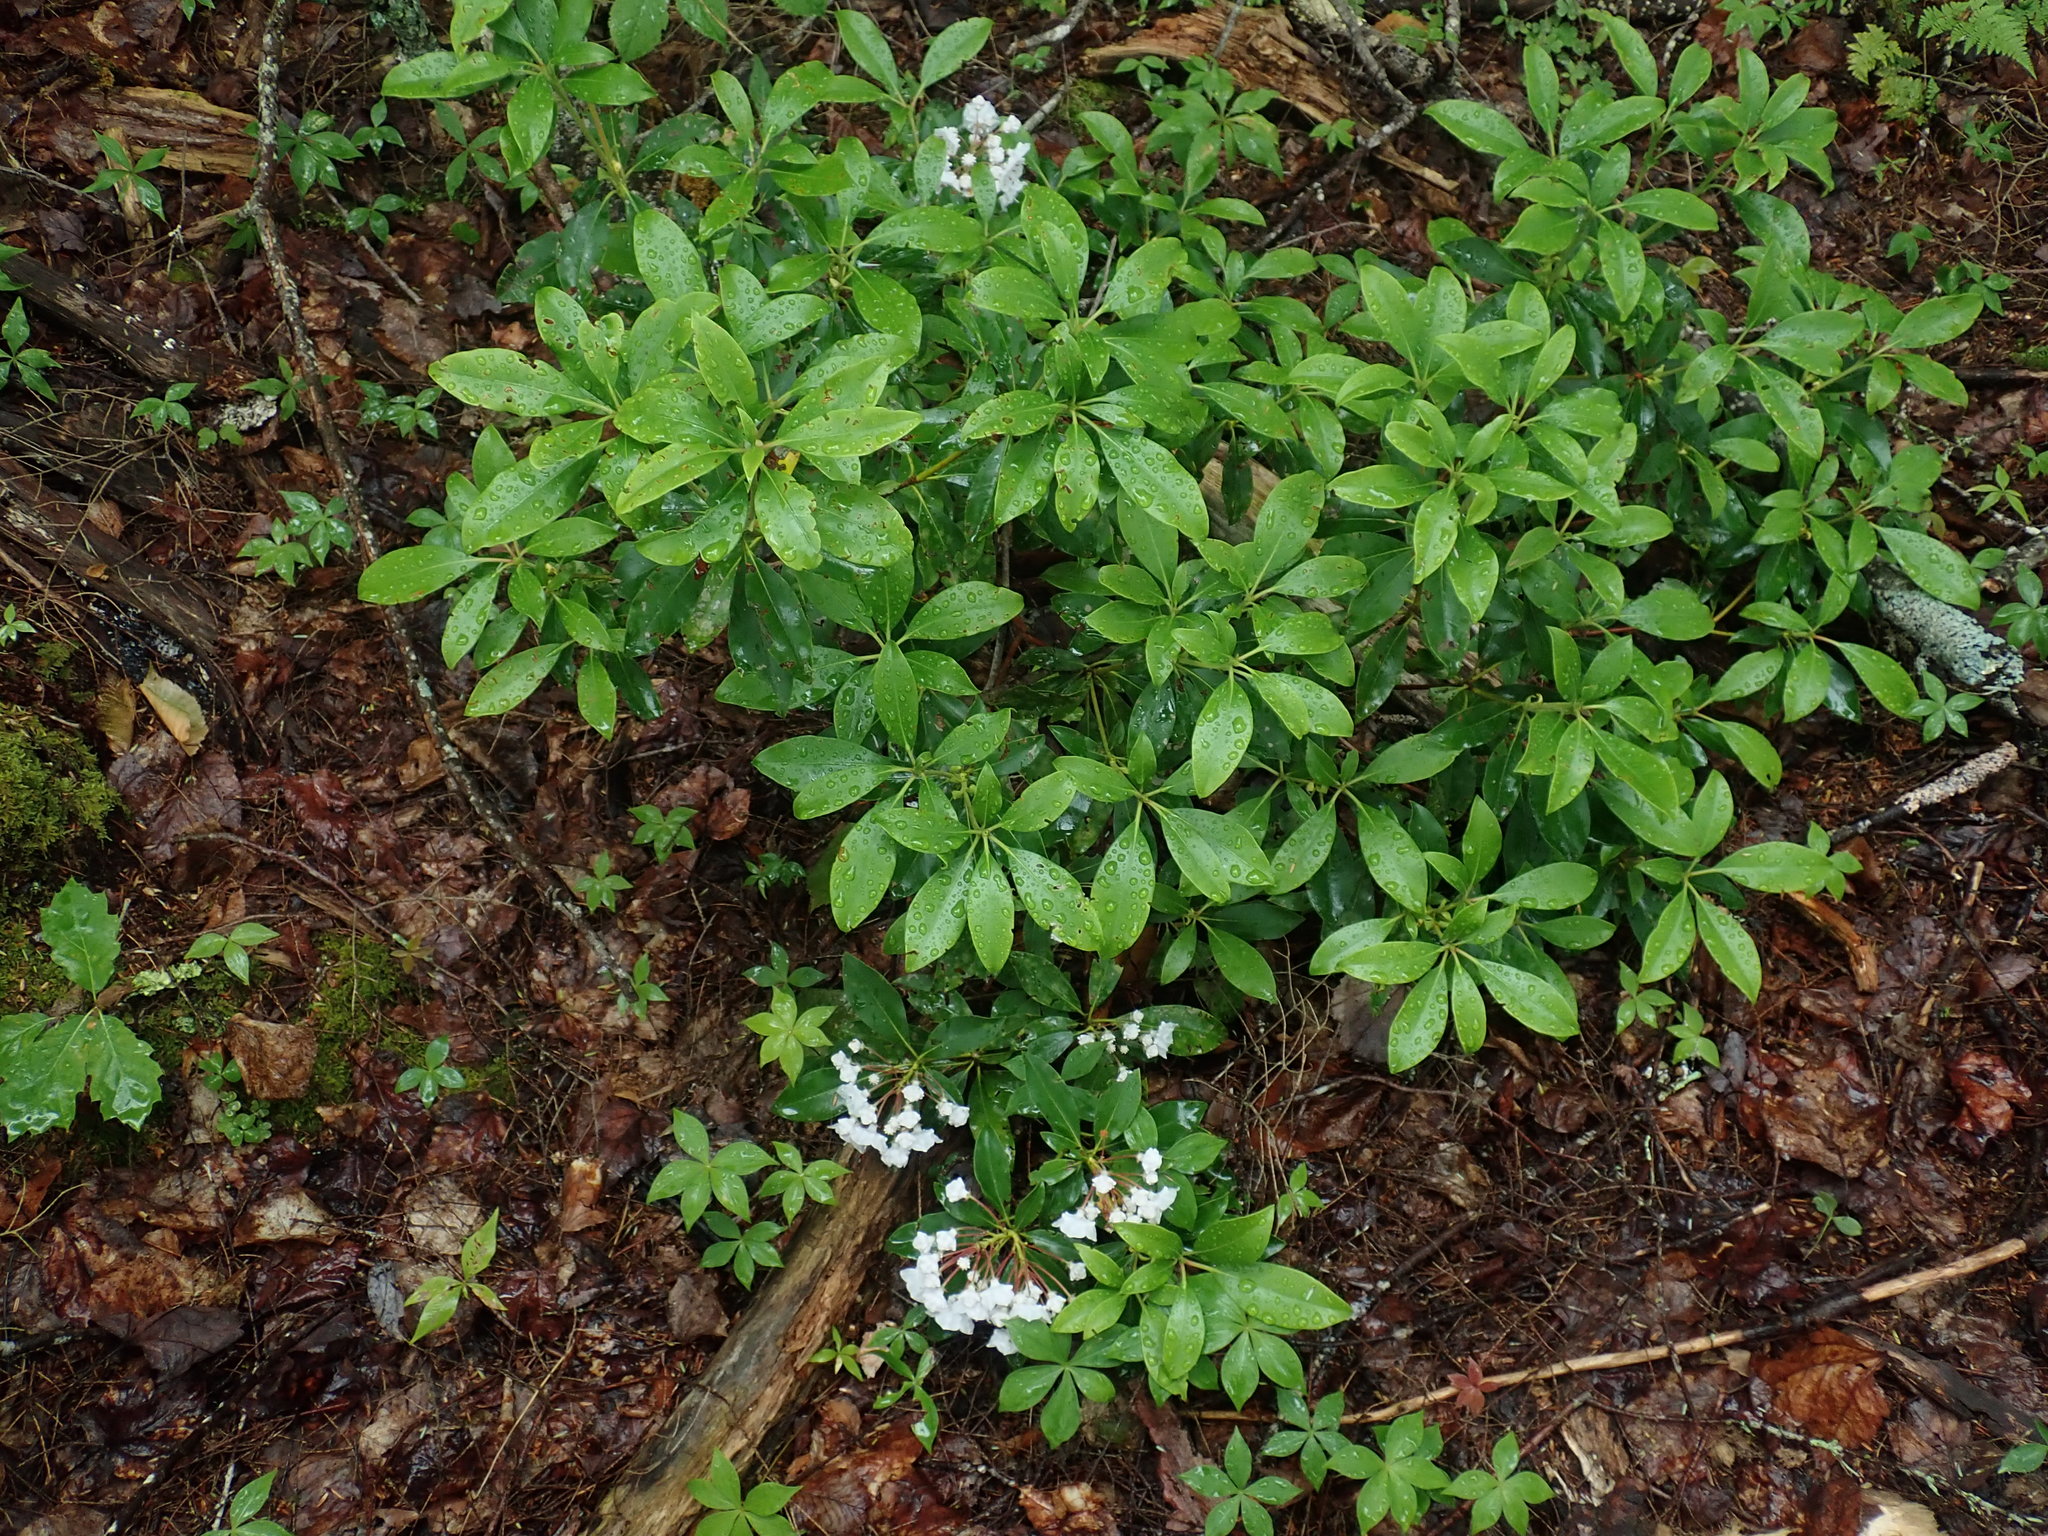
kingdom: Plantae
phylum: Tracheophyta
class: Magnoliopsida
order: Ericales
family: Ericaceae
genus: Kalmia
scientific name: Kalmia latifolia
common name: Mountain-laurel
